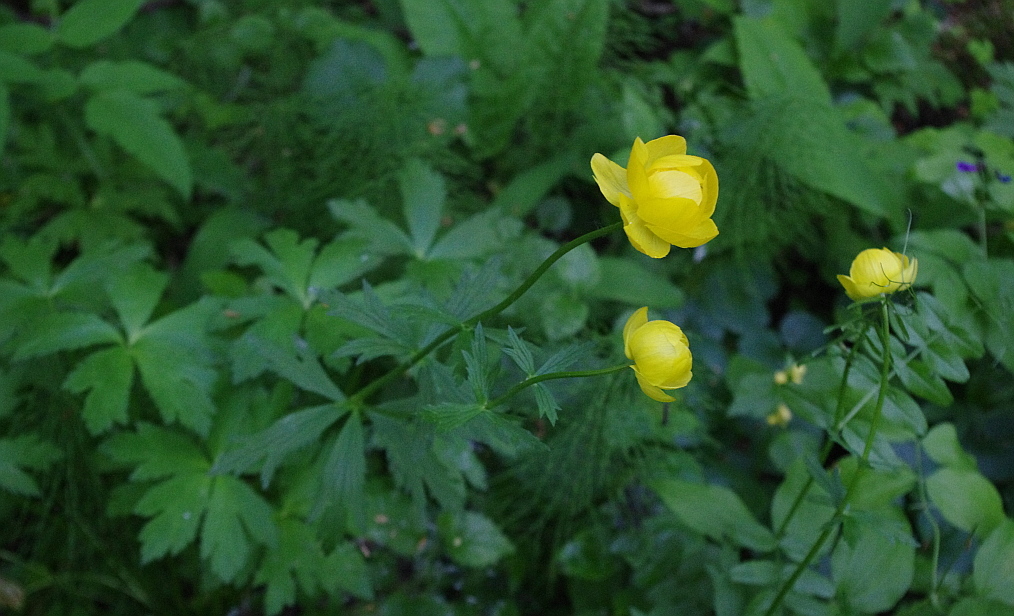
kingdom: Plantae
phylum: Tracheophyta
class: Magnoliopsida
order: Ranunculales
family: Ranunculaceae
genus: Trollius
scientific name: Trollius europaeus
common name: European globeflower
